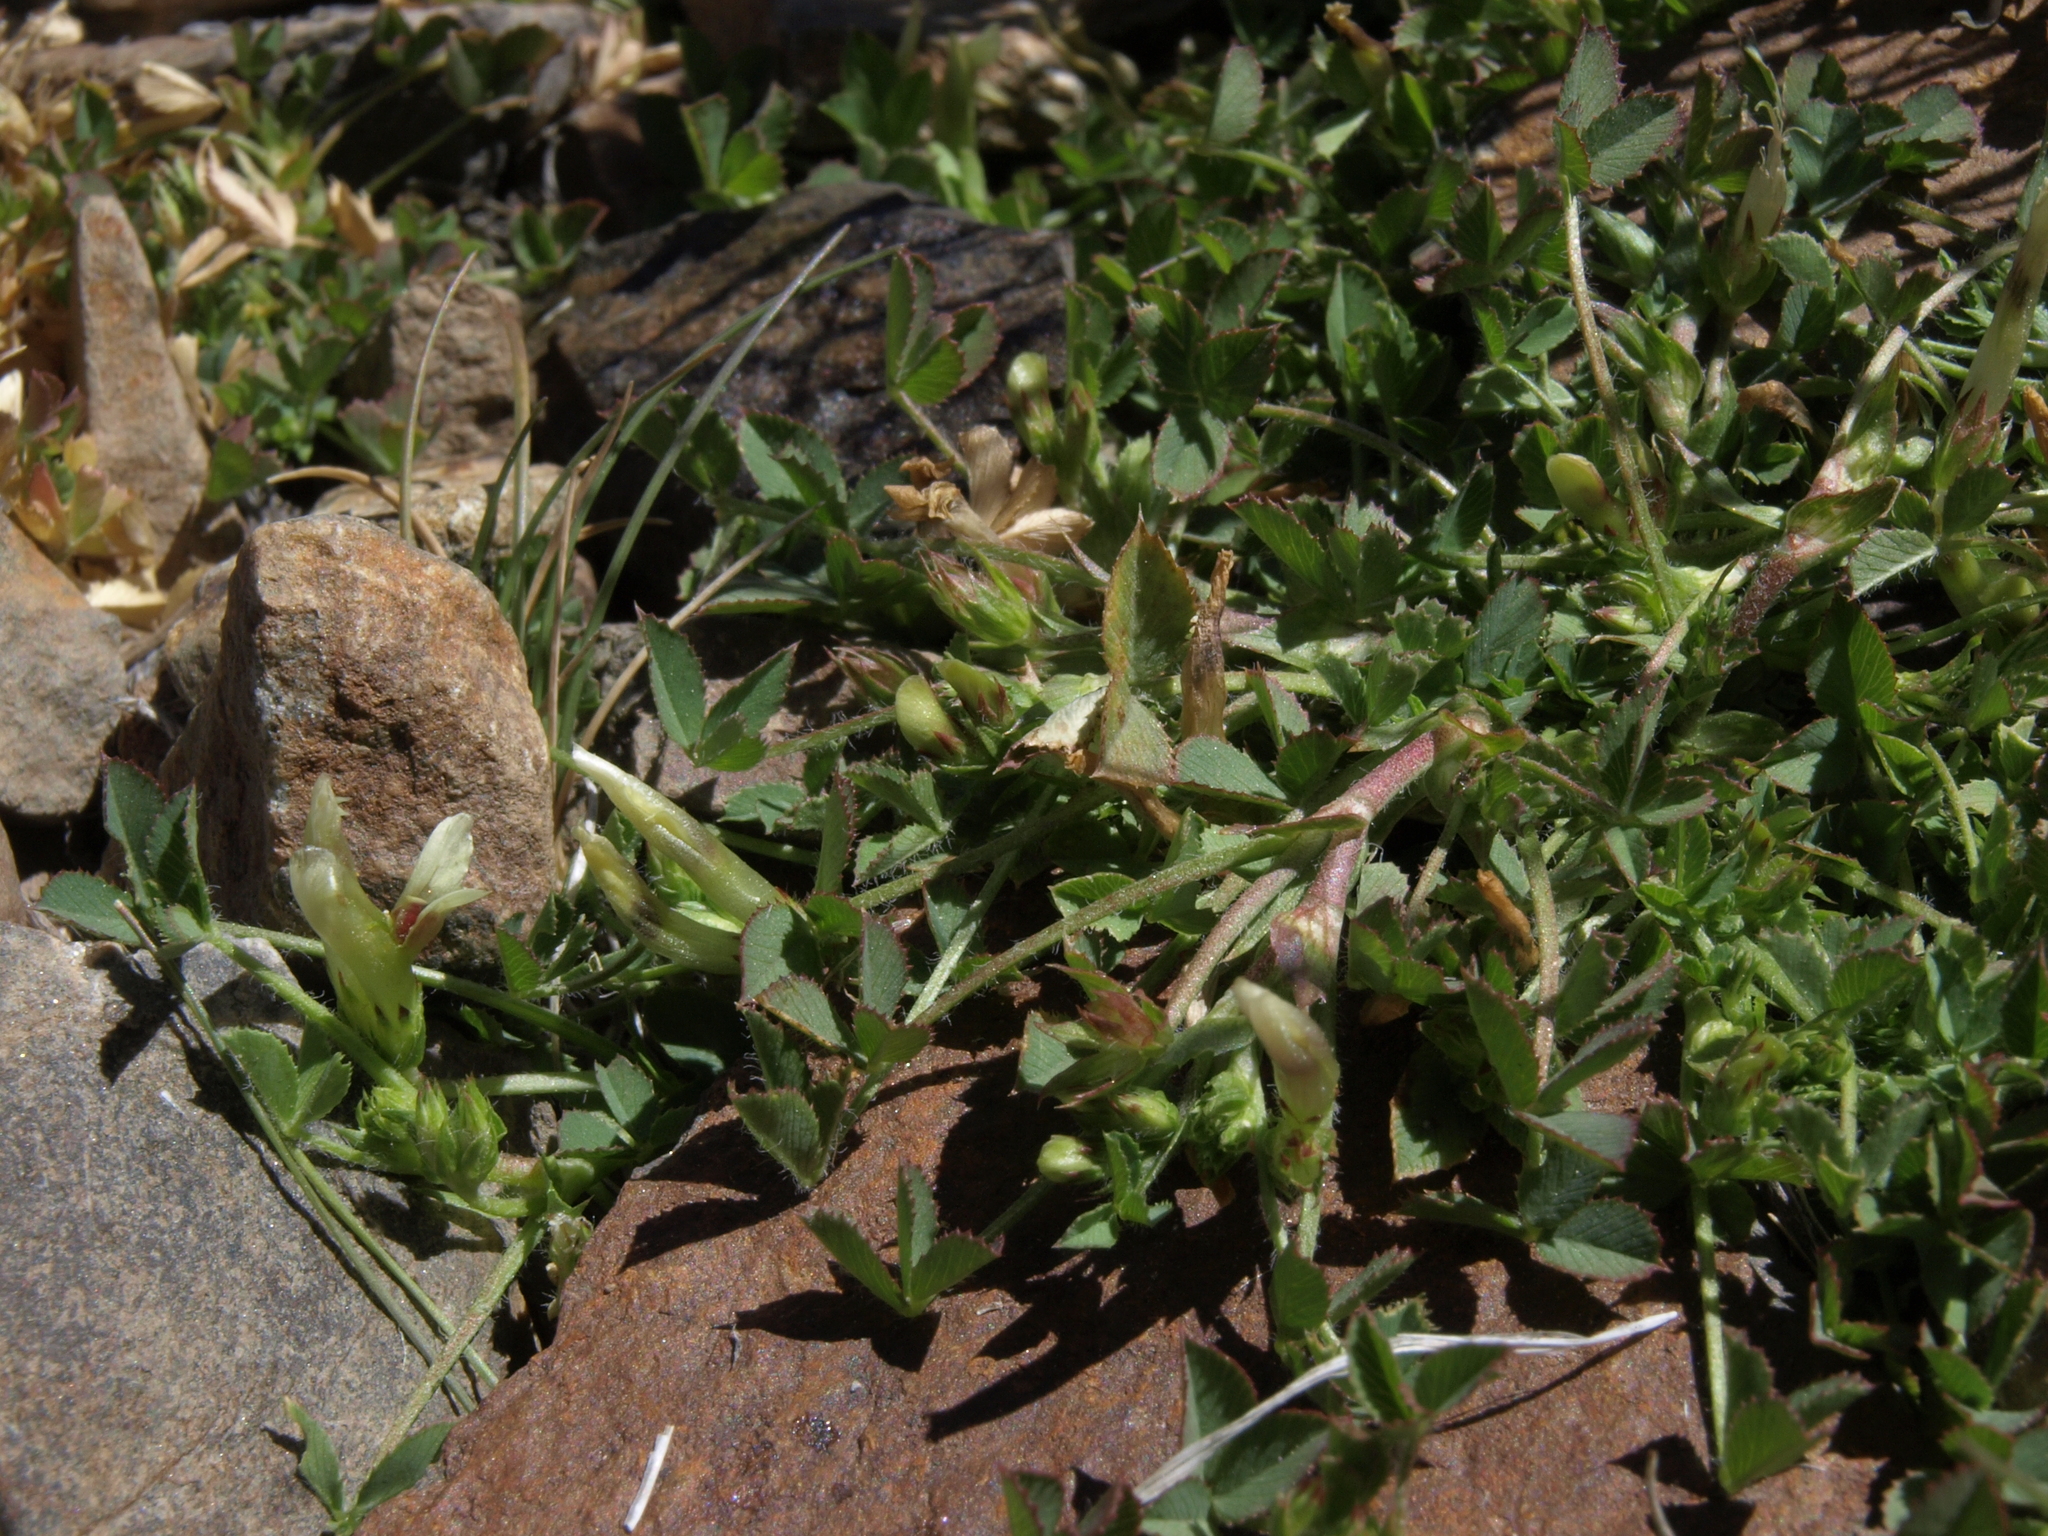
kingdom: Plantae
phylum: Tracheophyta
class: Magnoliopsida
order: Fabales
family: Fabaceae
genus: Trifolium
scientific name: Trifolium monanthum
